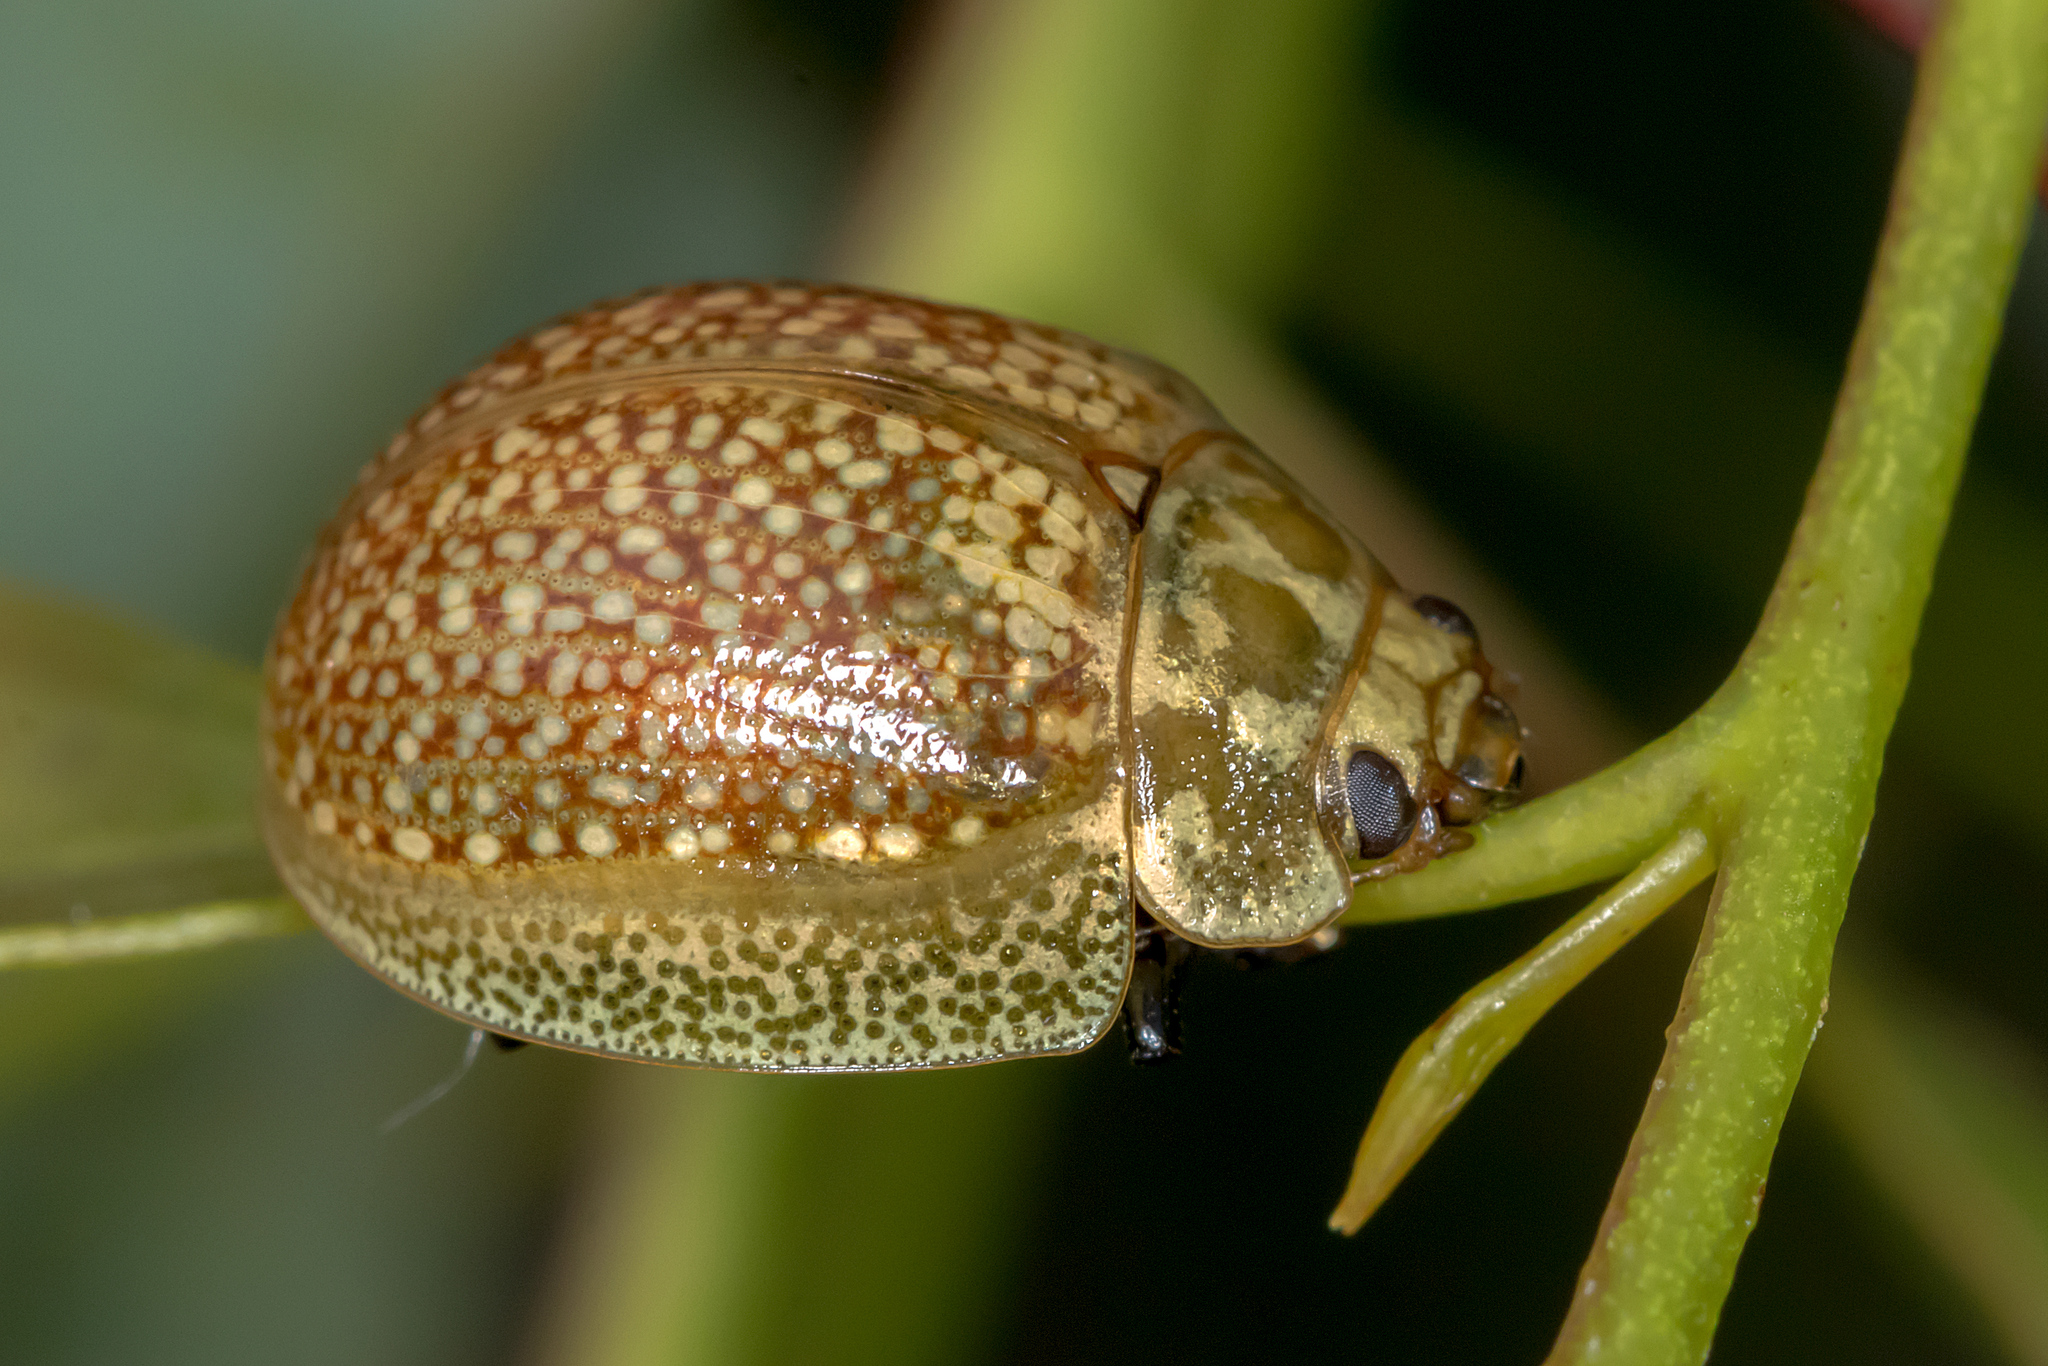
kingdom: Animalia
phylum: Arthropoda
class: Insecta
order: Coleoptera
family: Chrysomelidae
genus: Paropsisterna
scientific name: Paropsisterna cloelia
